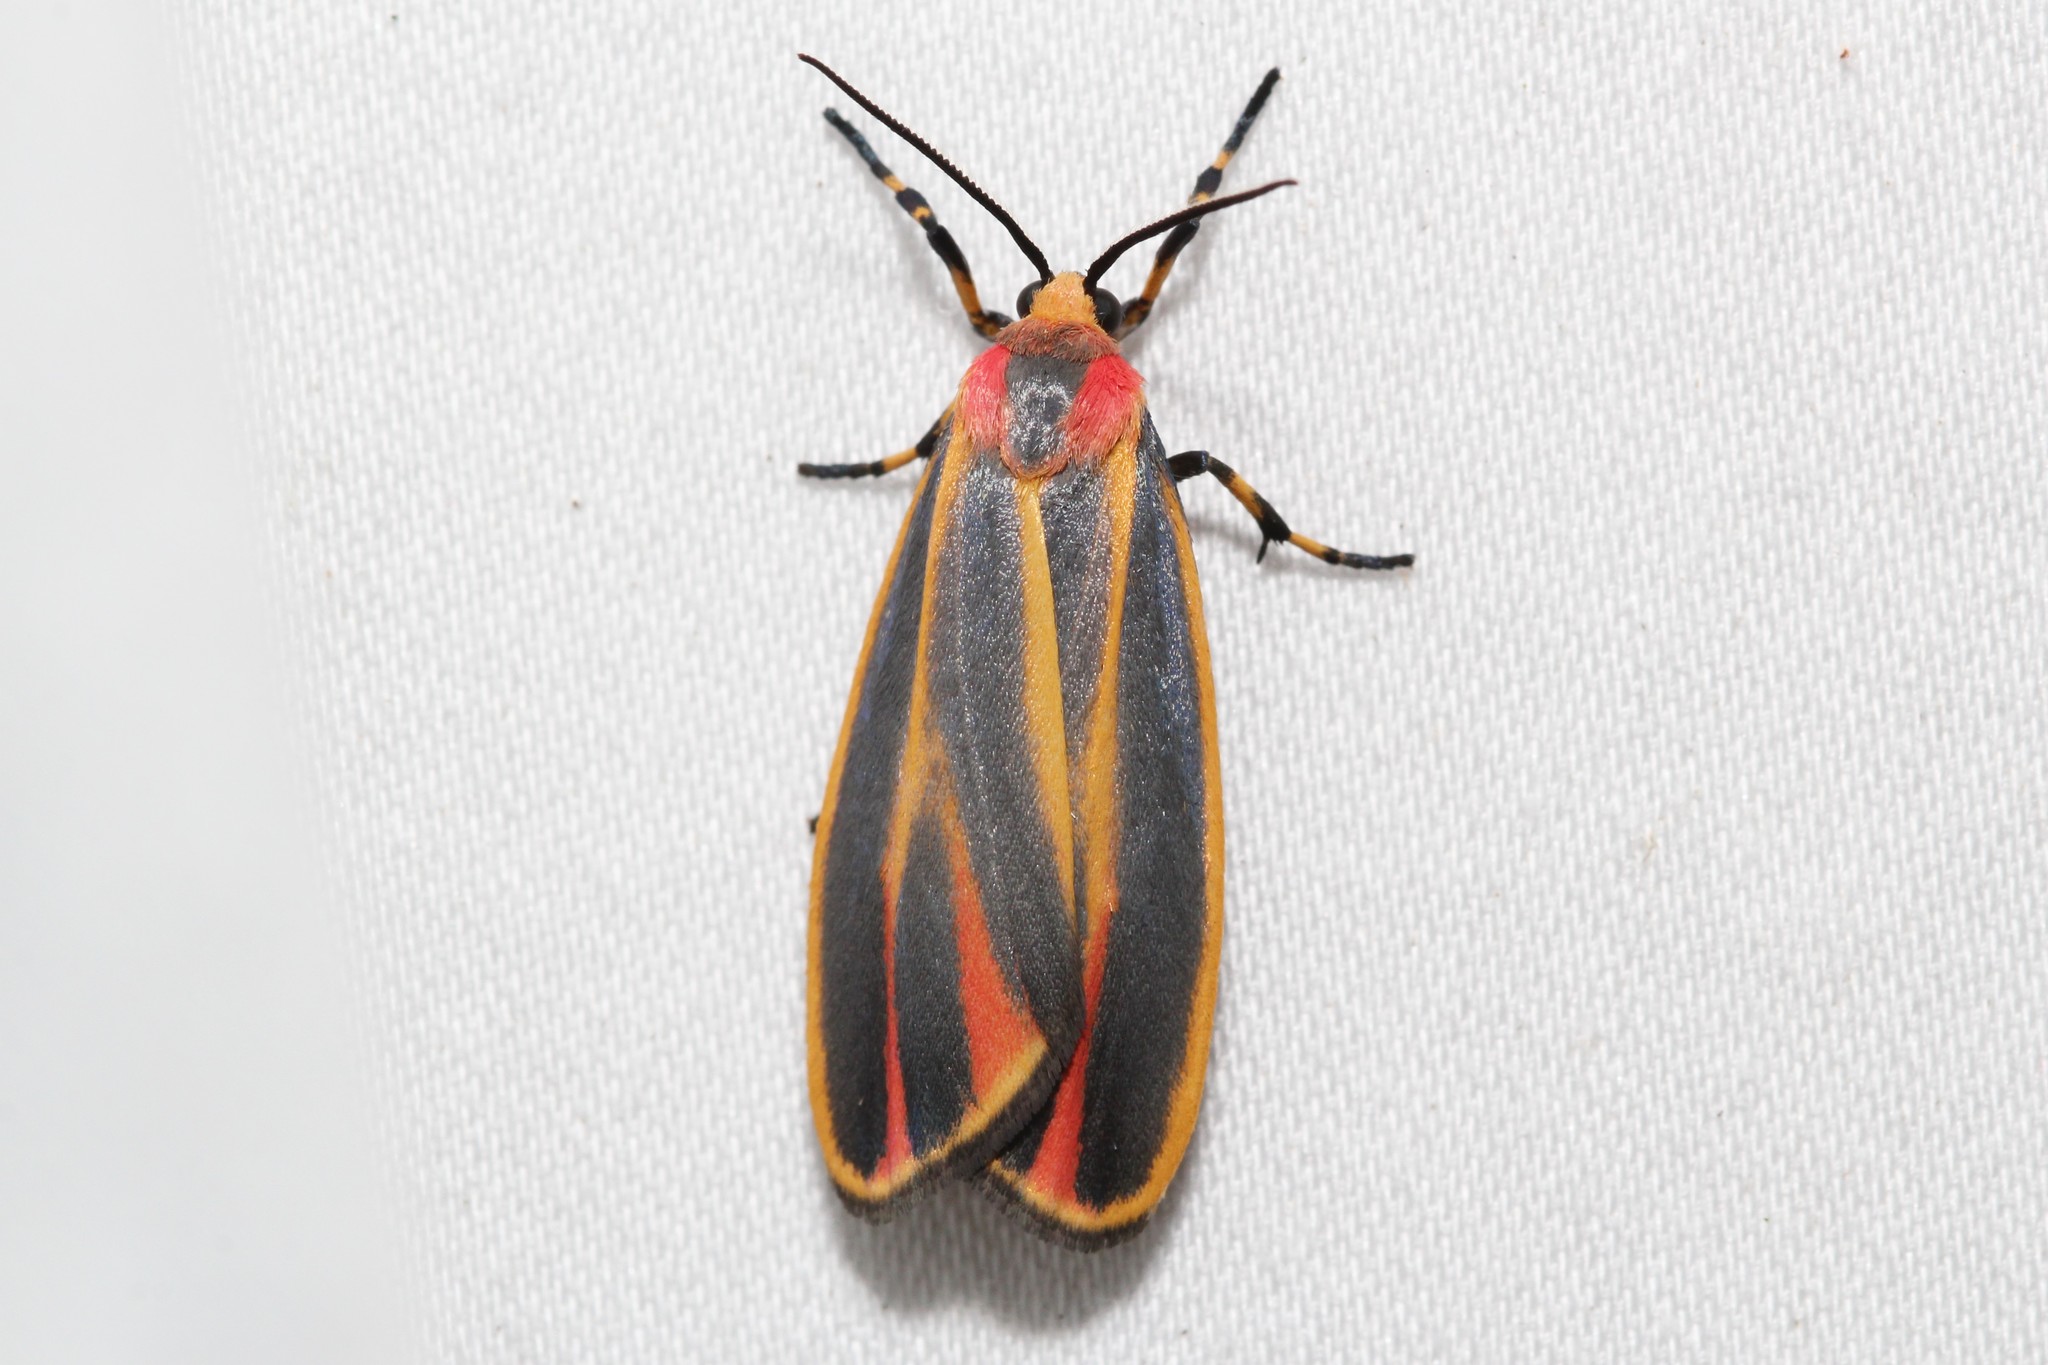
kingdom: Animalia
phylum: Arthropoda
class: Insecta
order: Lepidoptera
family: Erebidae
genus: Hypoprepia
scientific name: Hypoprepia fucosa
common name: Painted lichen moth
